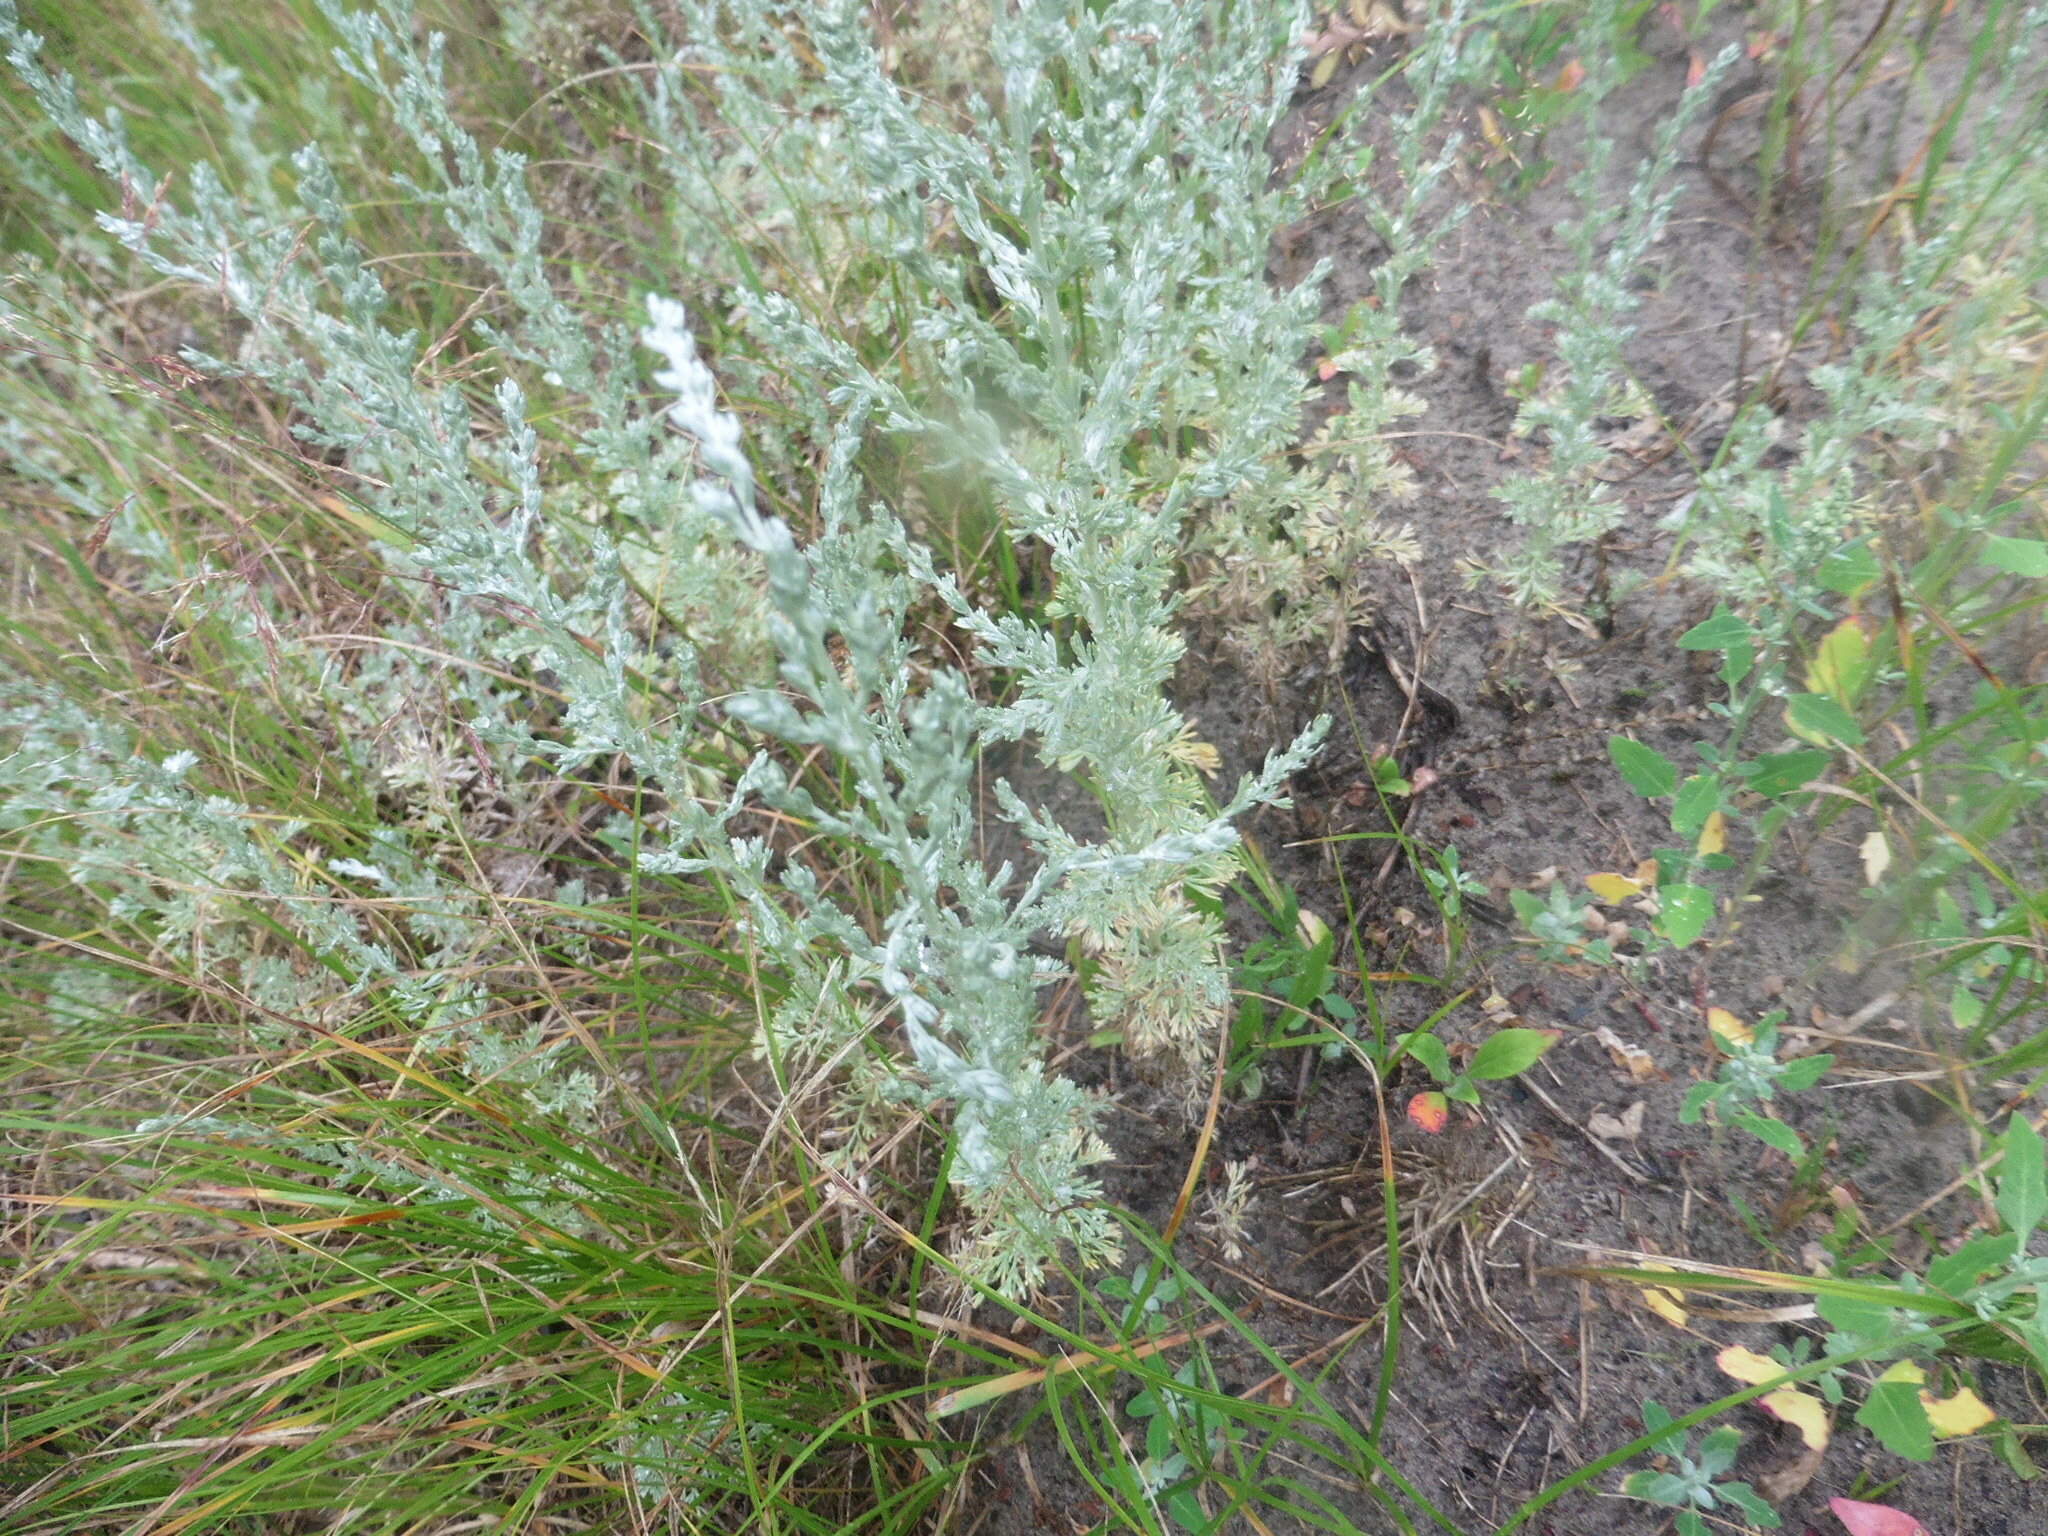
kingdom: Plantae
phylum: Tracheophyta
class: Magnoliopsida
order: Asterales
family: Asteraceae
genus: Artemisia
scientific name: Artemisia austriaca
